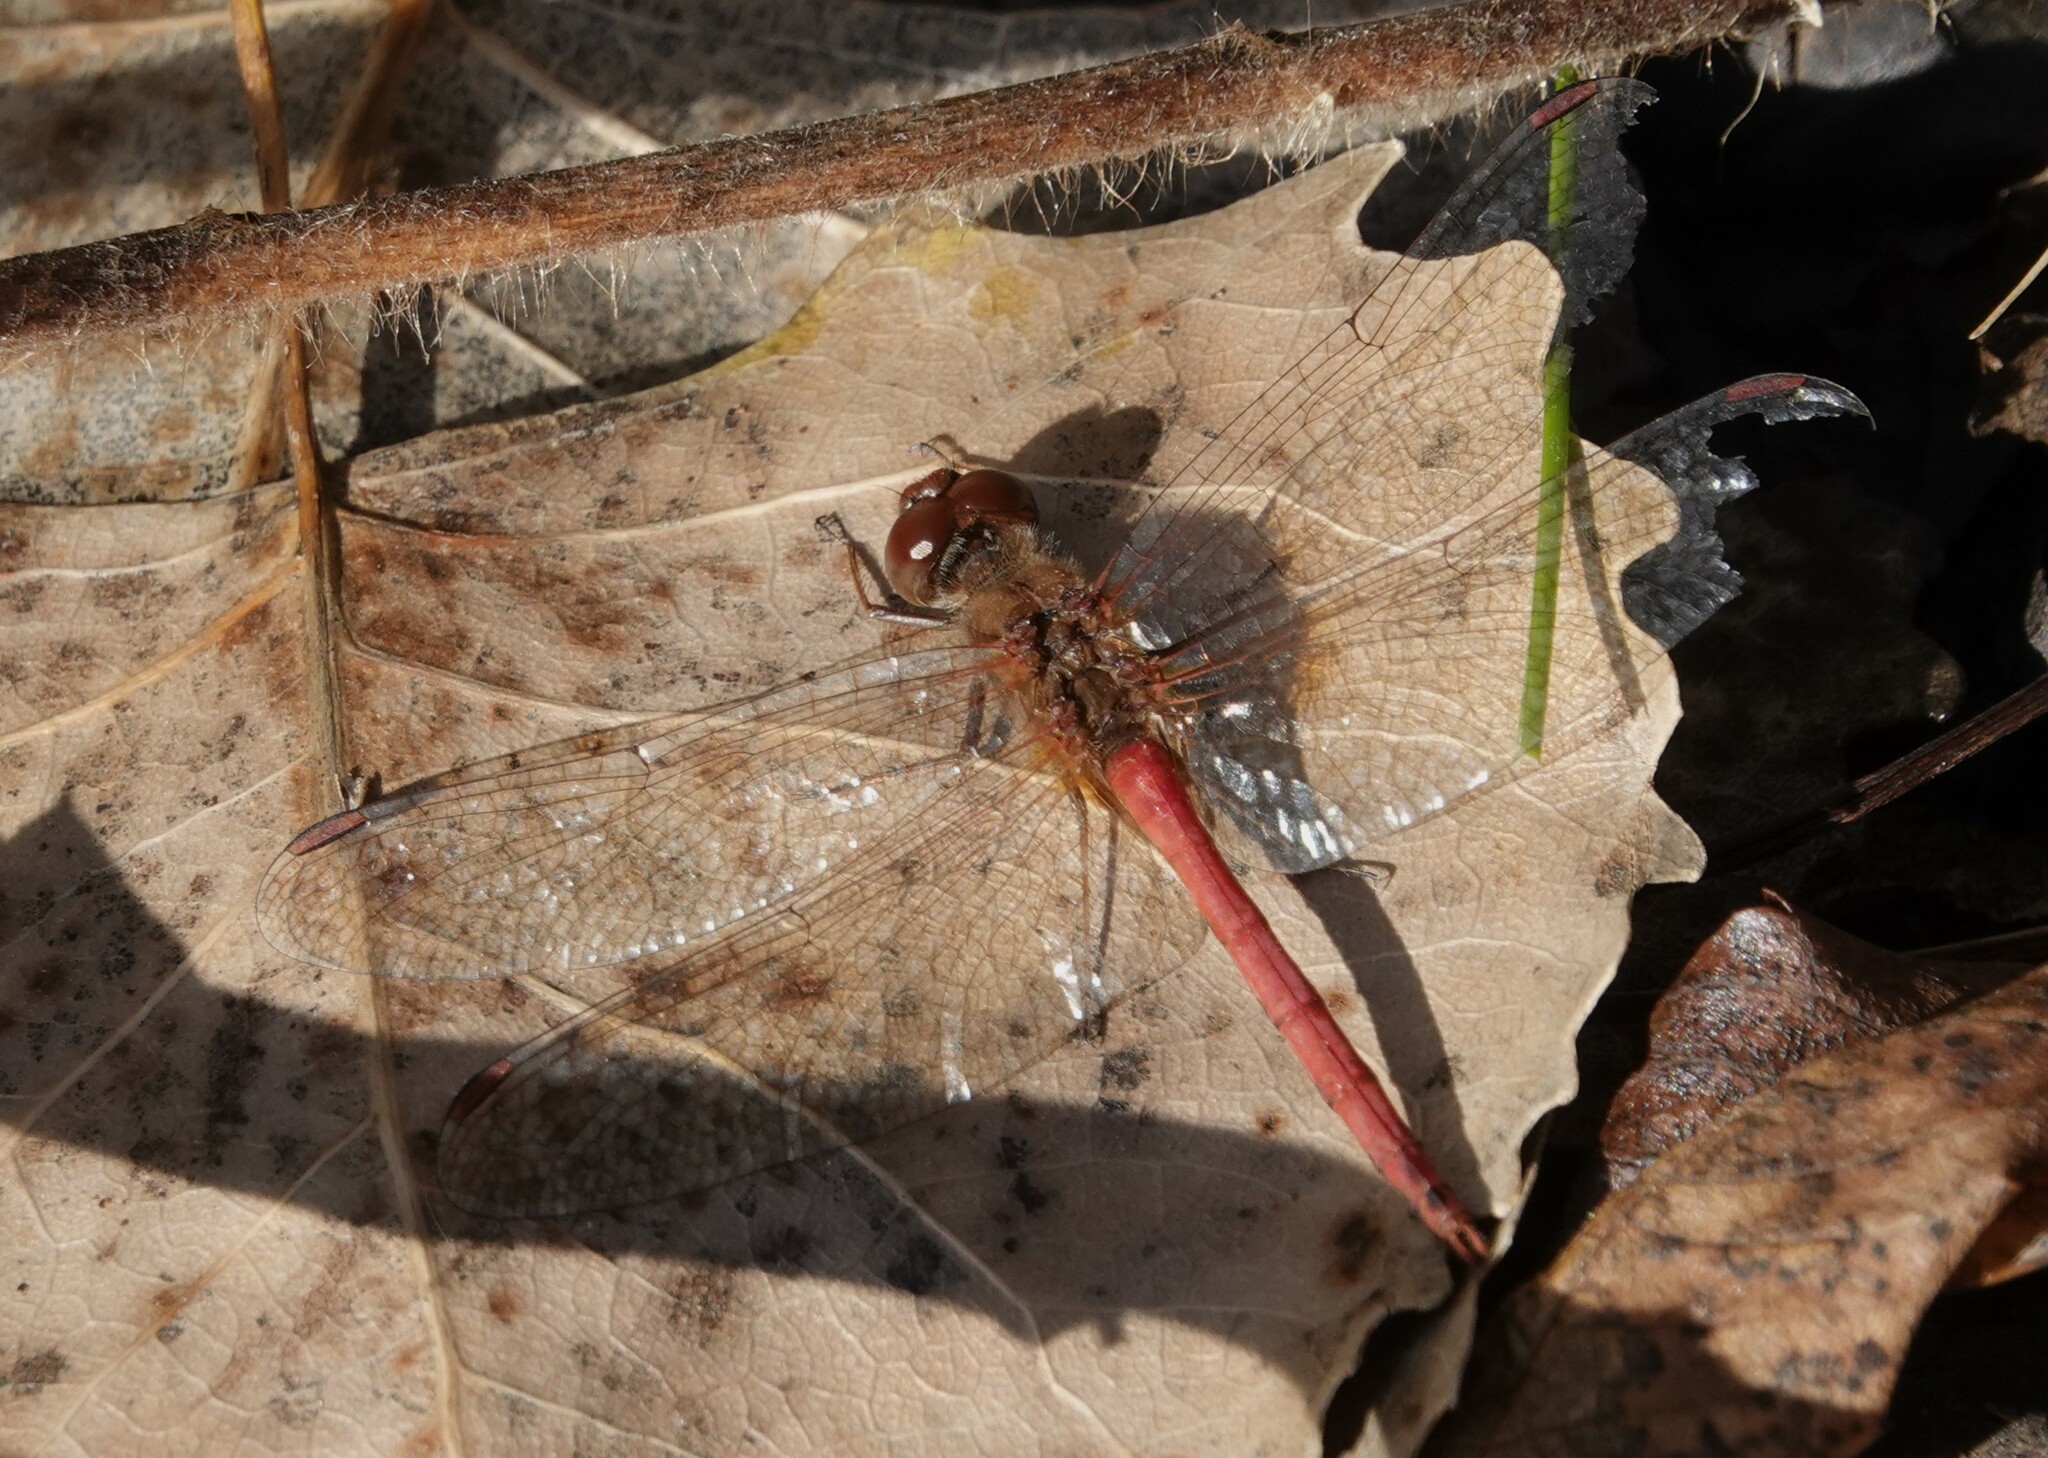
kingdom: Animalia
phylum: Arthropoda
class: Insecta
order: Odonata
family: Libellulidae
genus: Sympetrum
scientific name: Sympetrum vicinum
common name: Autumn meadowhawk
